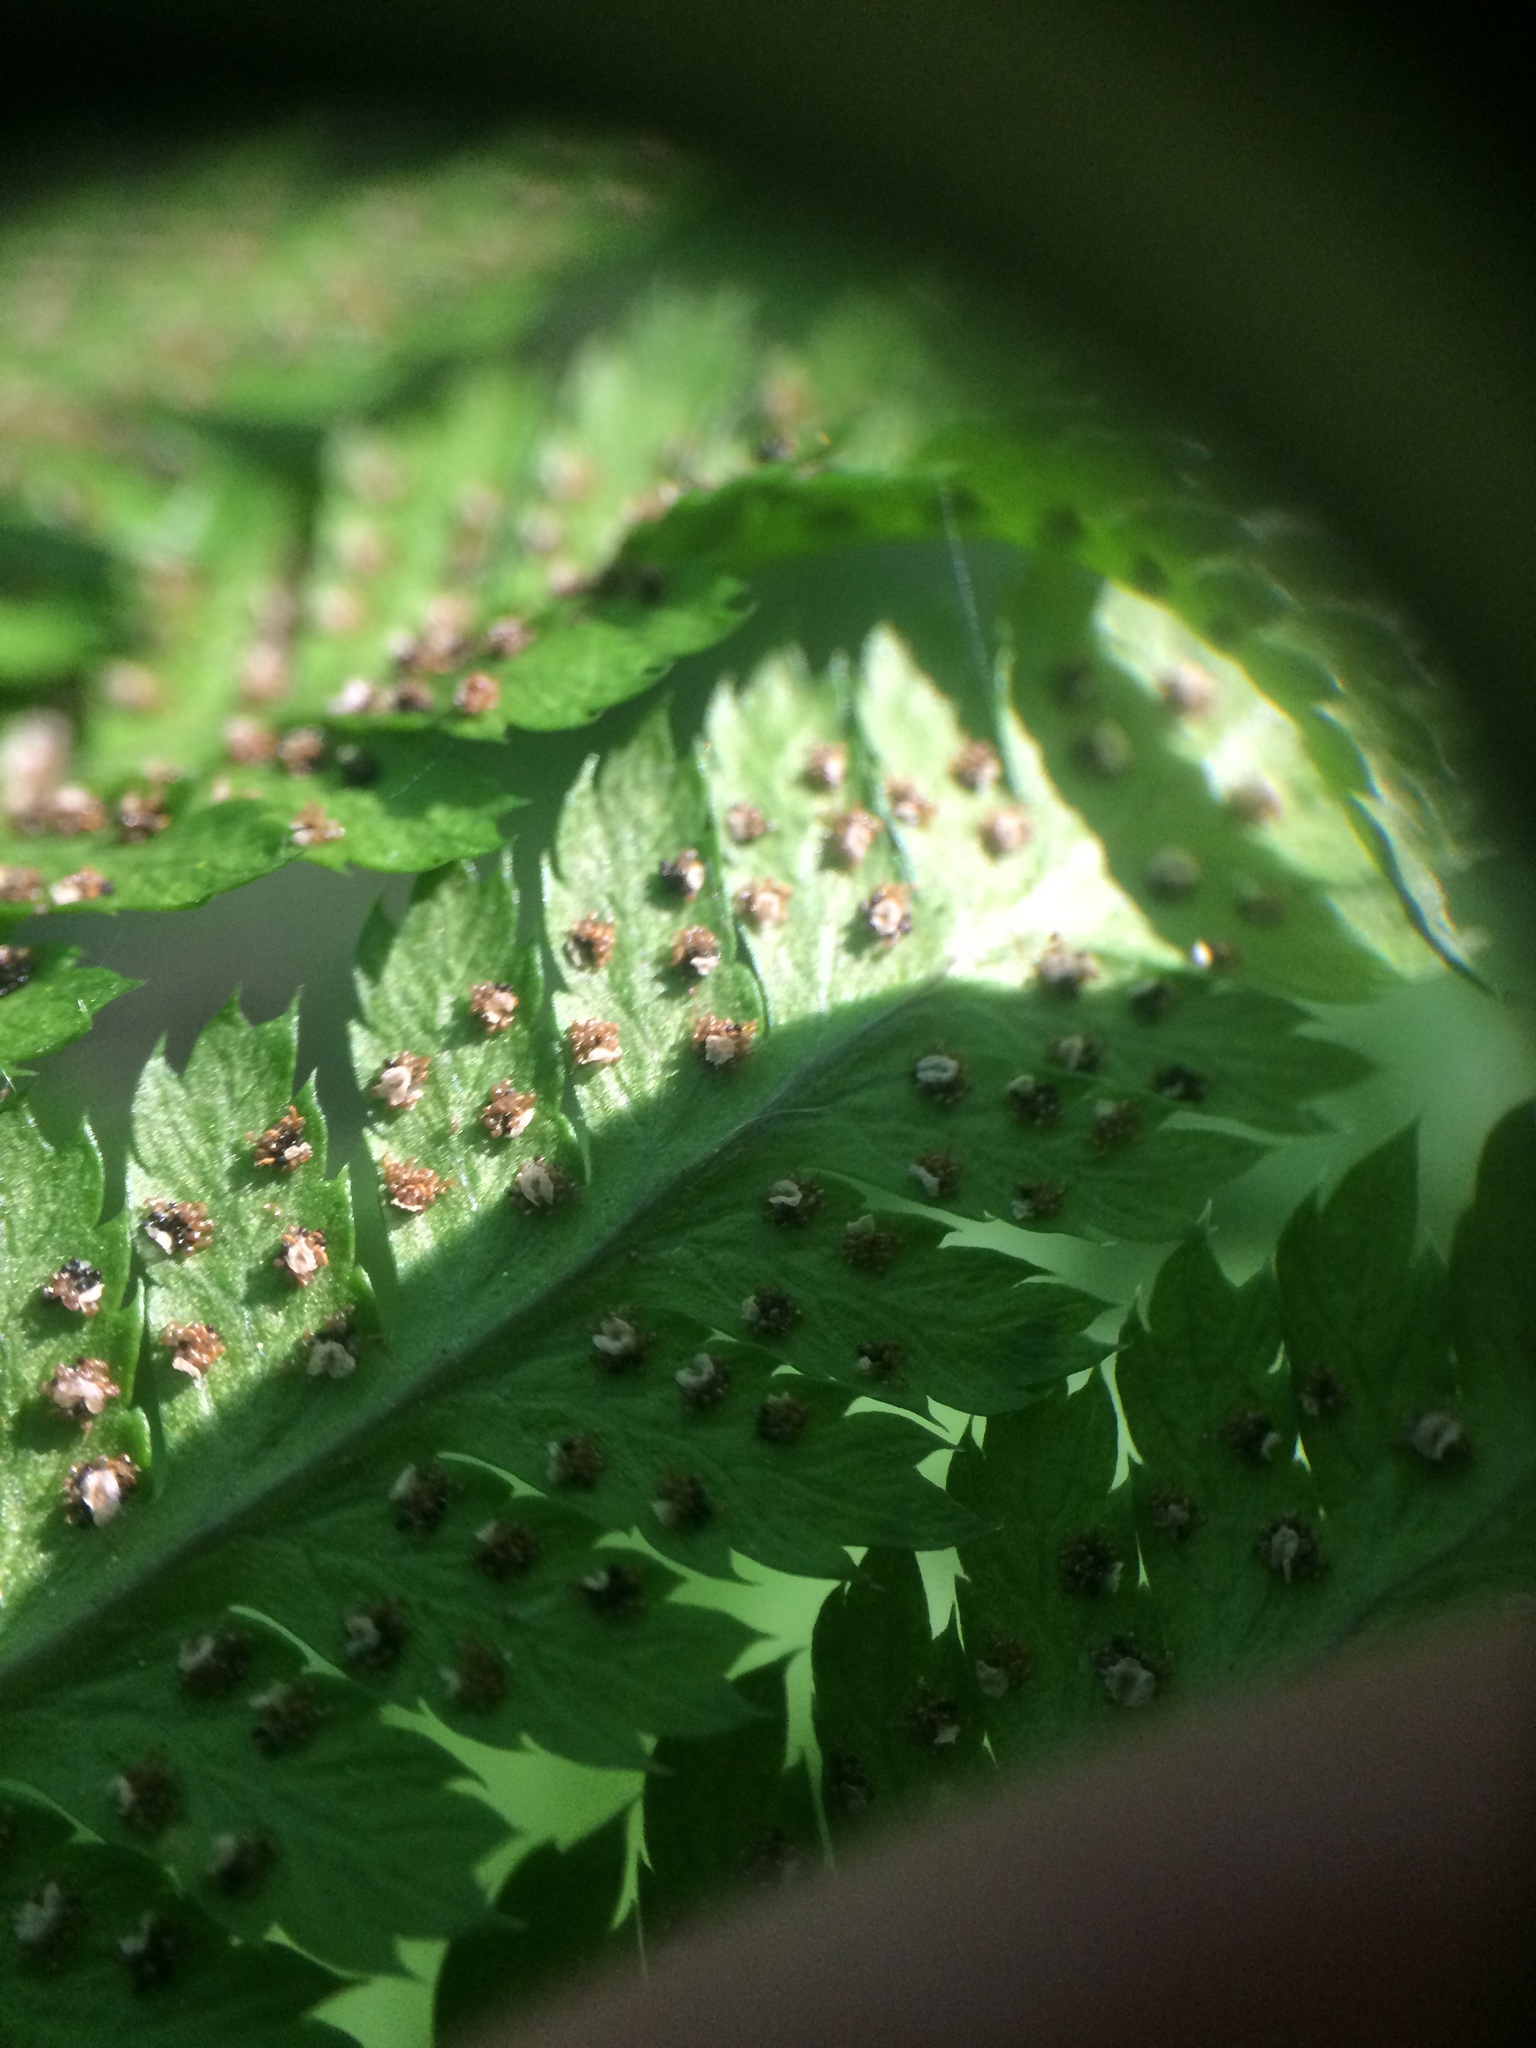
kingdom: Plantae
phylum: Tracheophyta
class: Polypodiopsida
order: Polypodiales
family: Dryopteridaceae
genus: Dryopteris
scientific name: Dryopteris carthusiana
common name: Narrow buckler-fern
